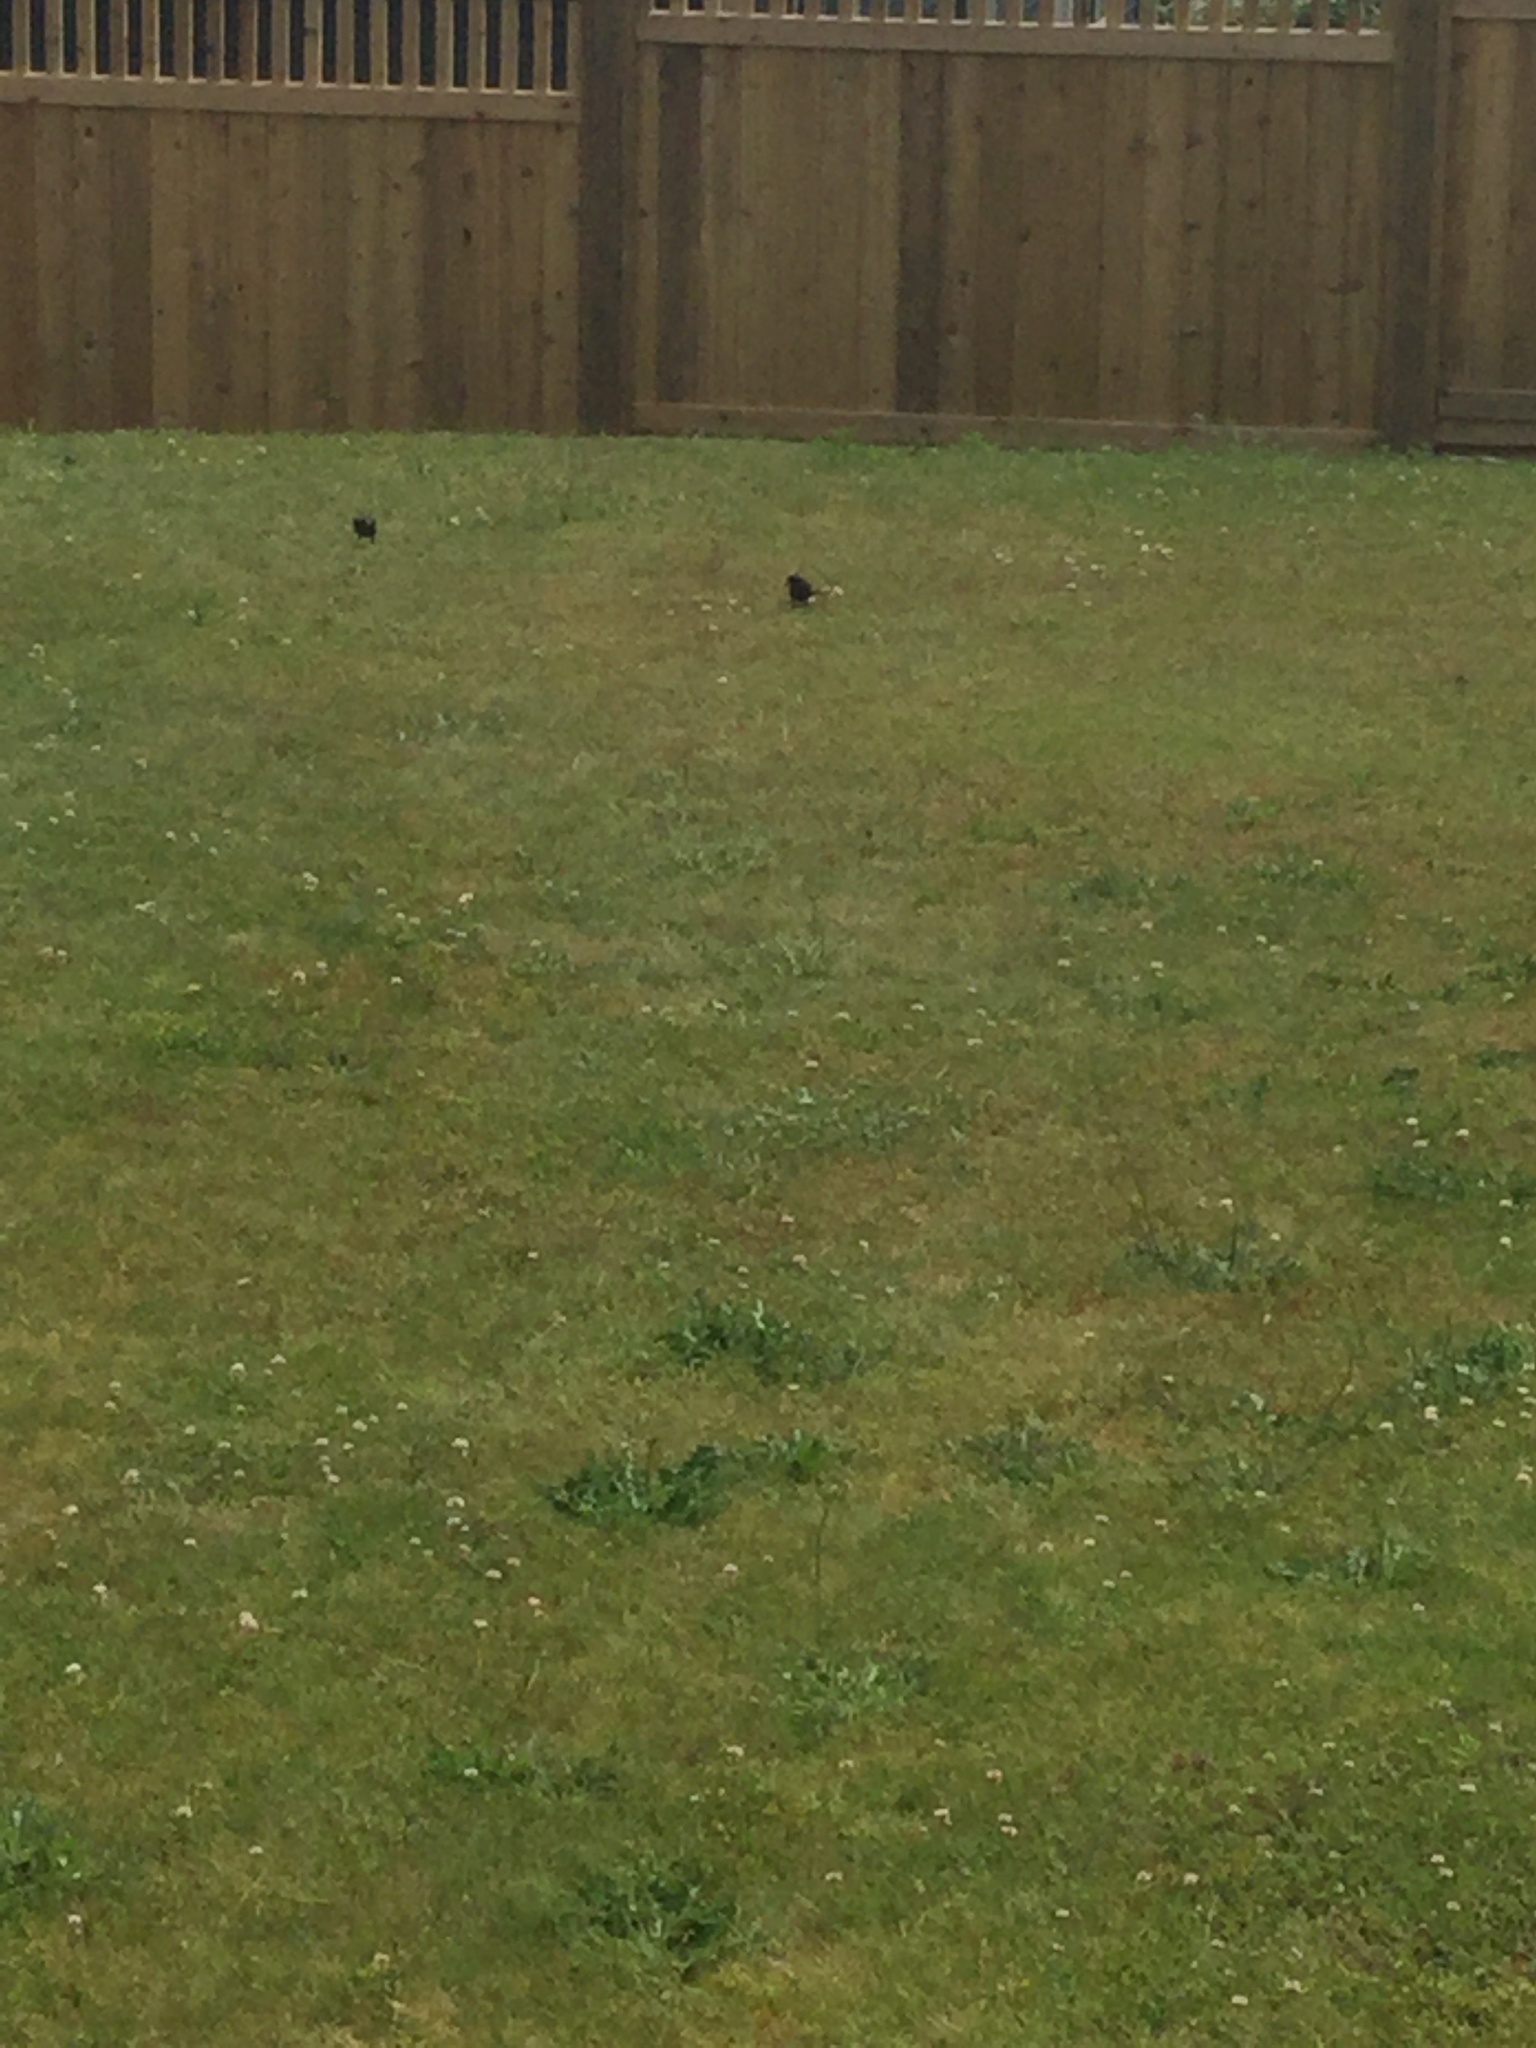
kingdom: Animalia
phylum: Chordata
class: Aves
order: Passeriformes
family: Sturnidae
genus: Sturnus
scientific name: Sturnus vulgaris
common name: Common starling
